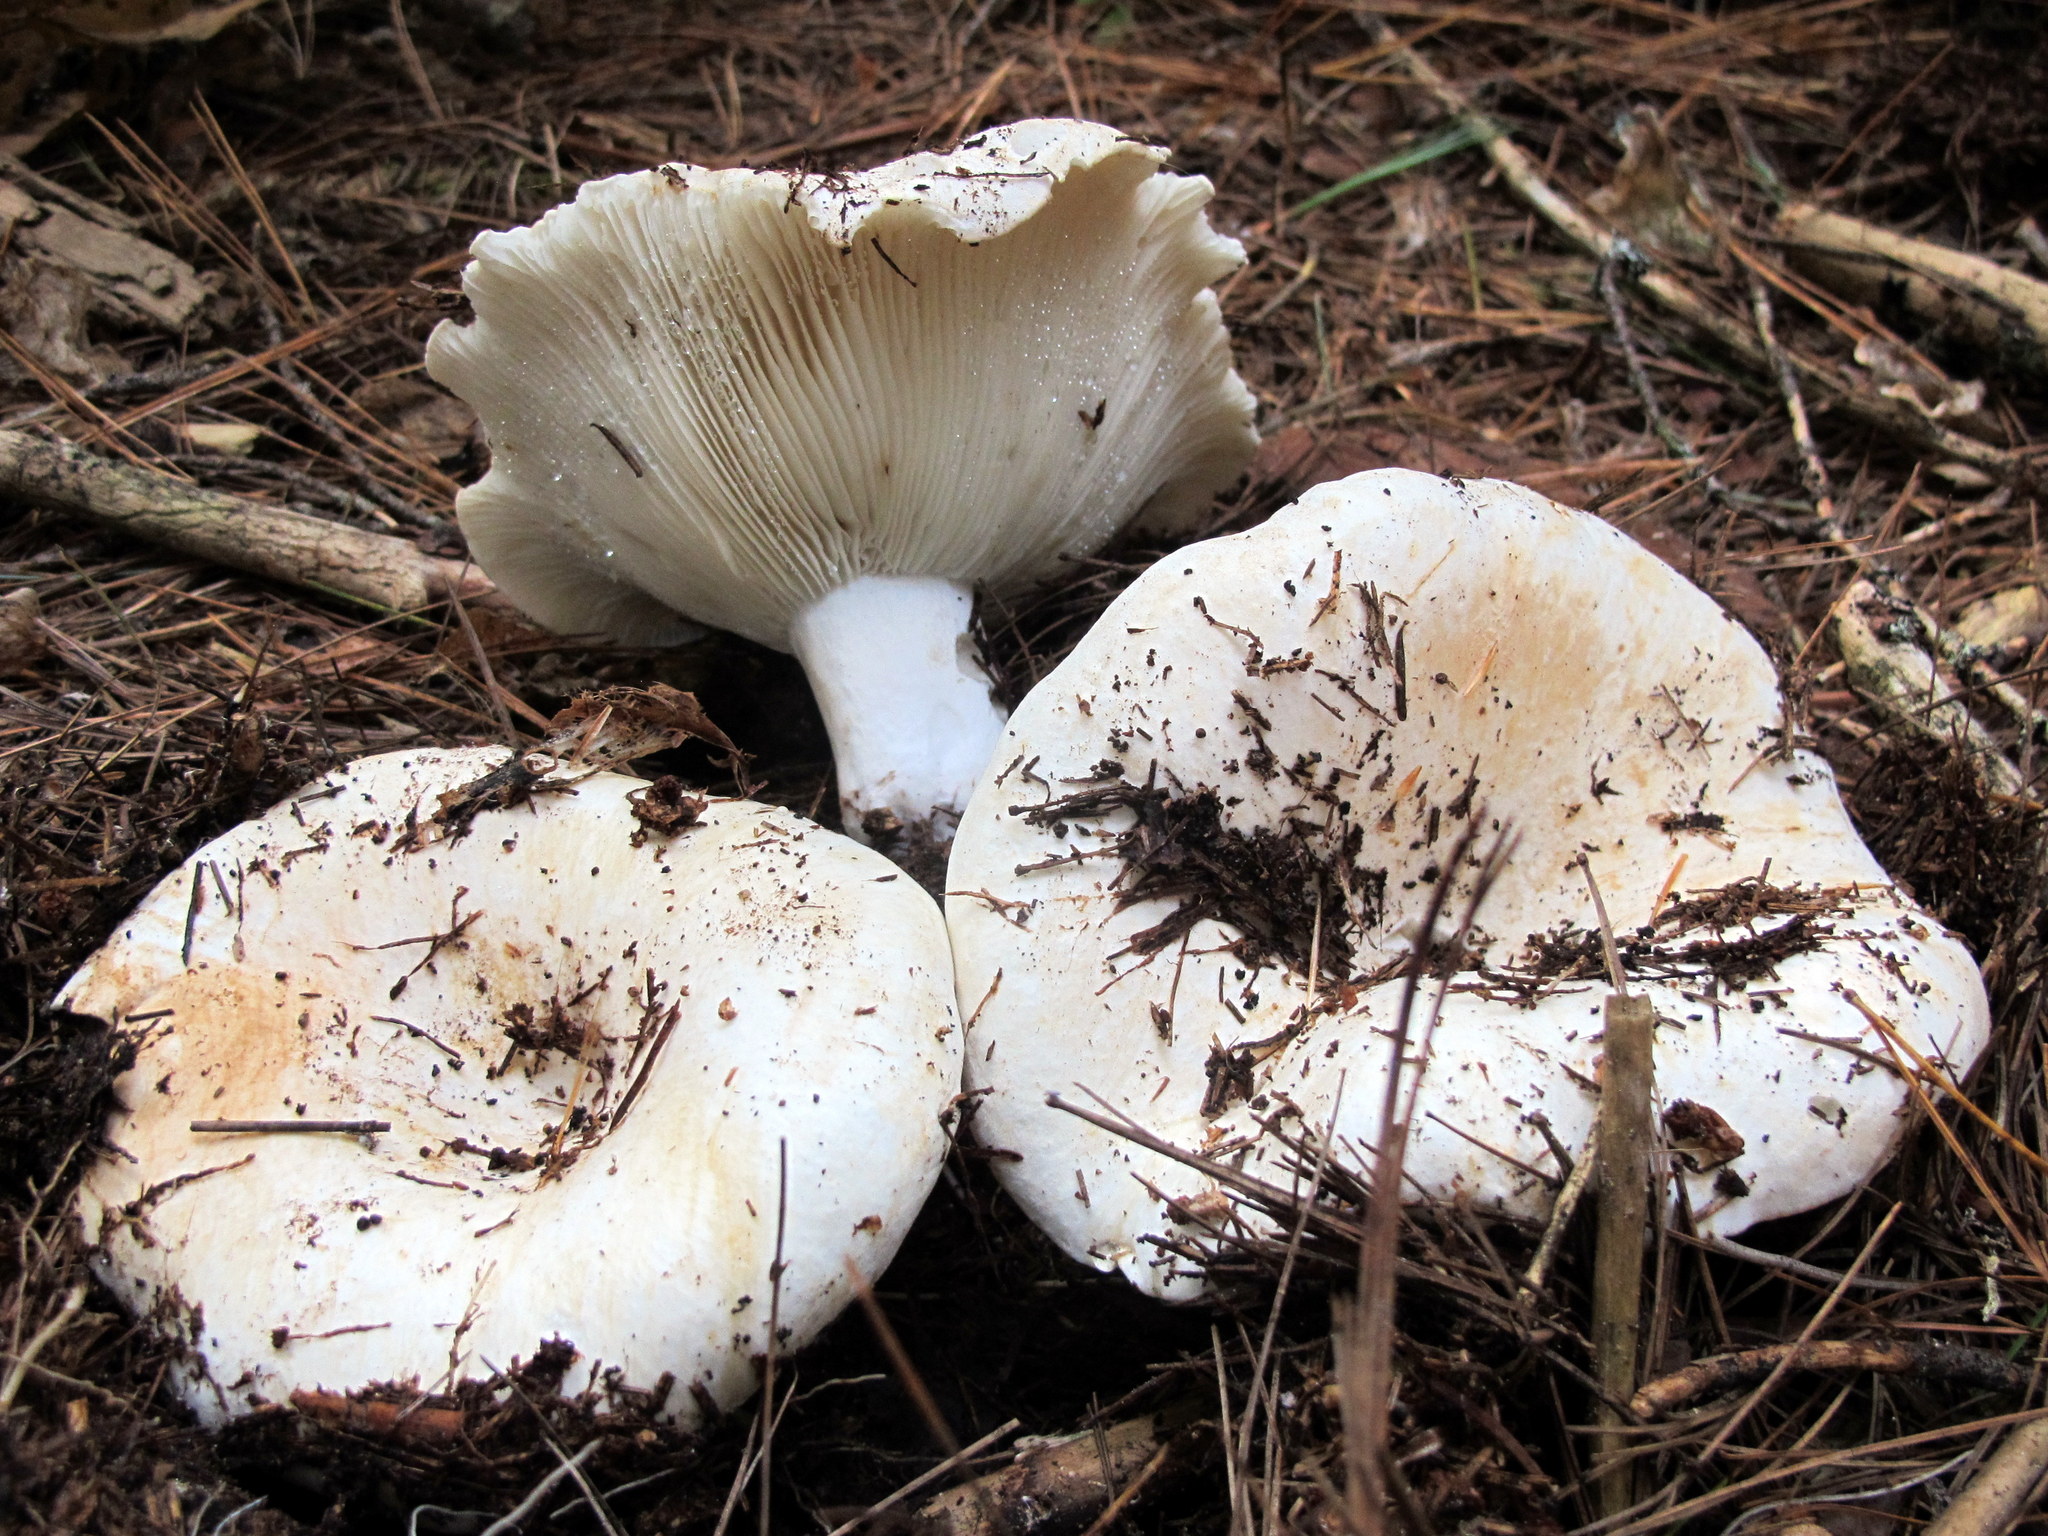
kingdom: Fungi
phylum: Basidiomycota
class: Agaricomycetes
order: Russulales
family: Russulaceae
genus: Russula
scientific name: Russula brevipes
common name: Short-stemmed russula
